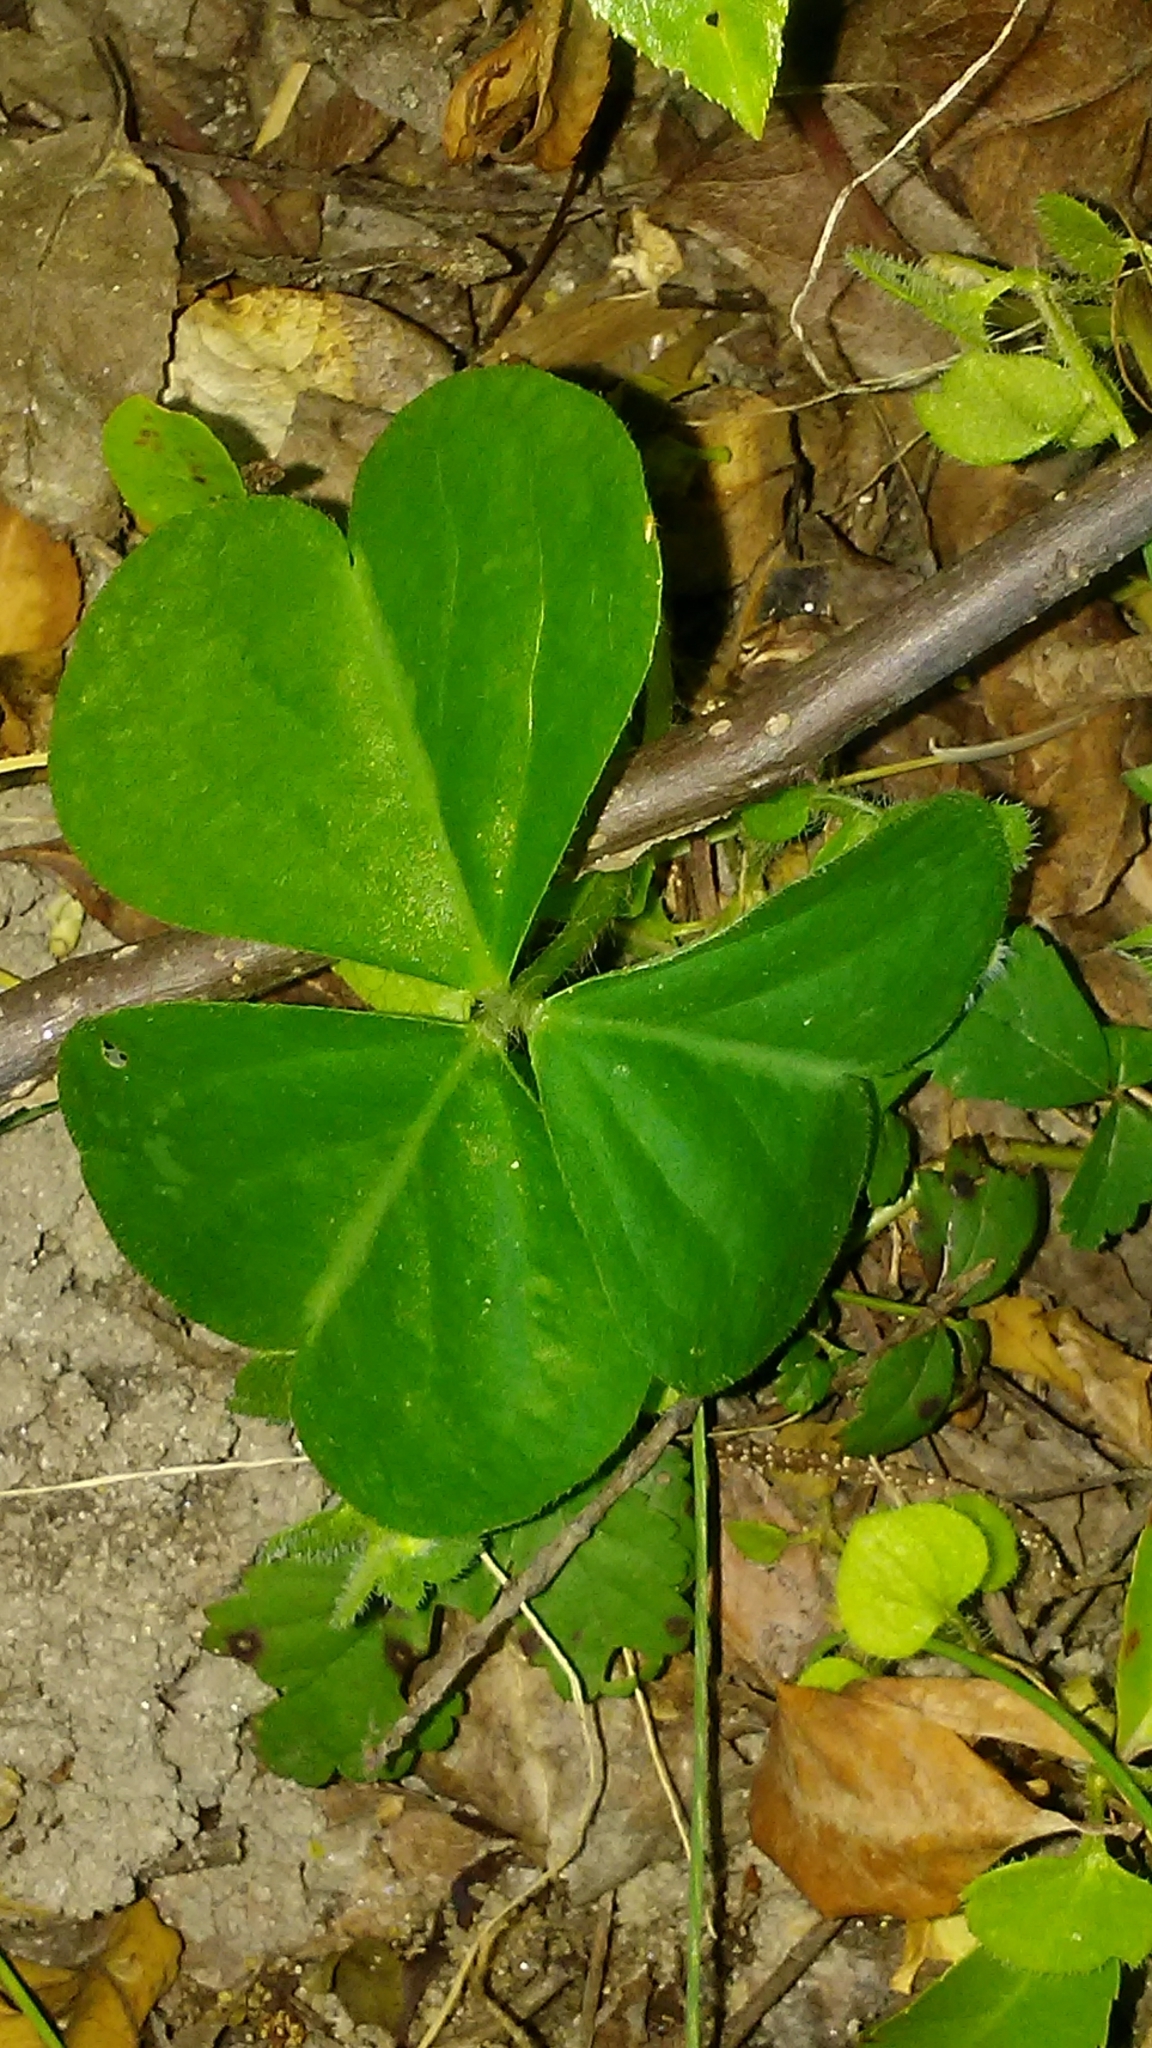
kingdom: Plantae
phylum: Tracheophyta
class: Magnoliopsida
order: Oxalidales
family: Oxalidaceae
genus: Oxalis
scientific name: Oxalis debilis
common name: Large-flowered pink-sorrel
